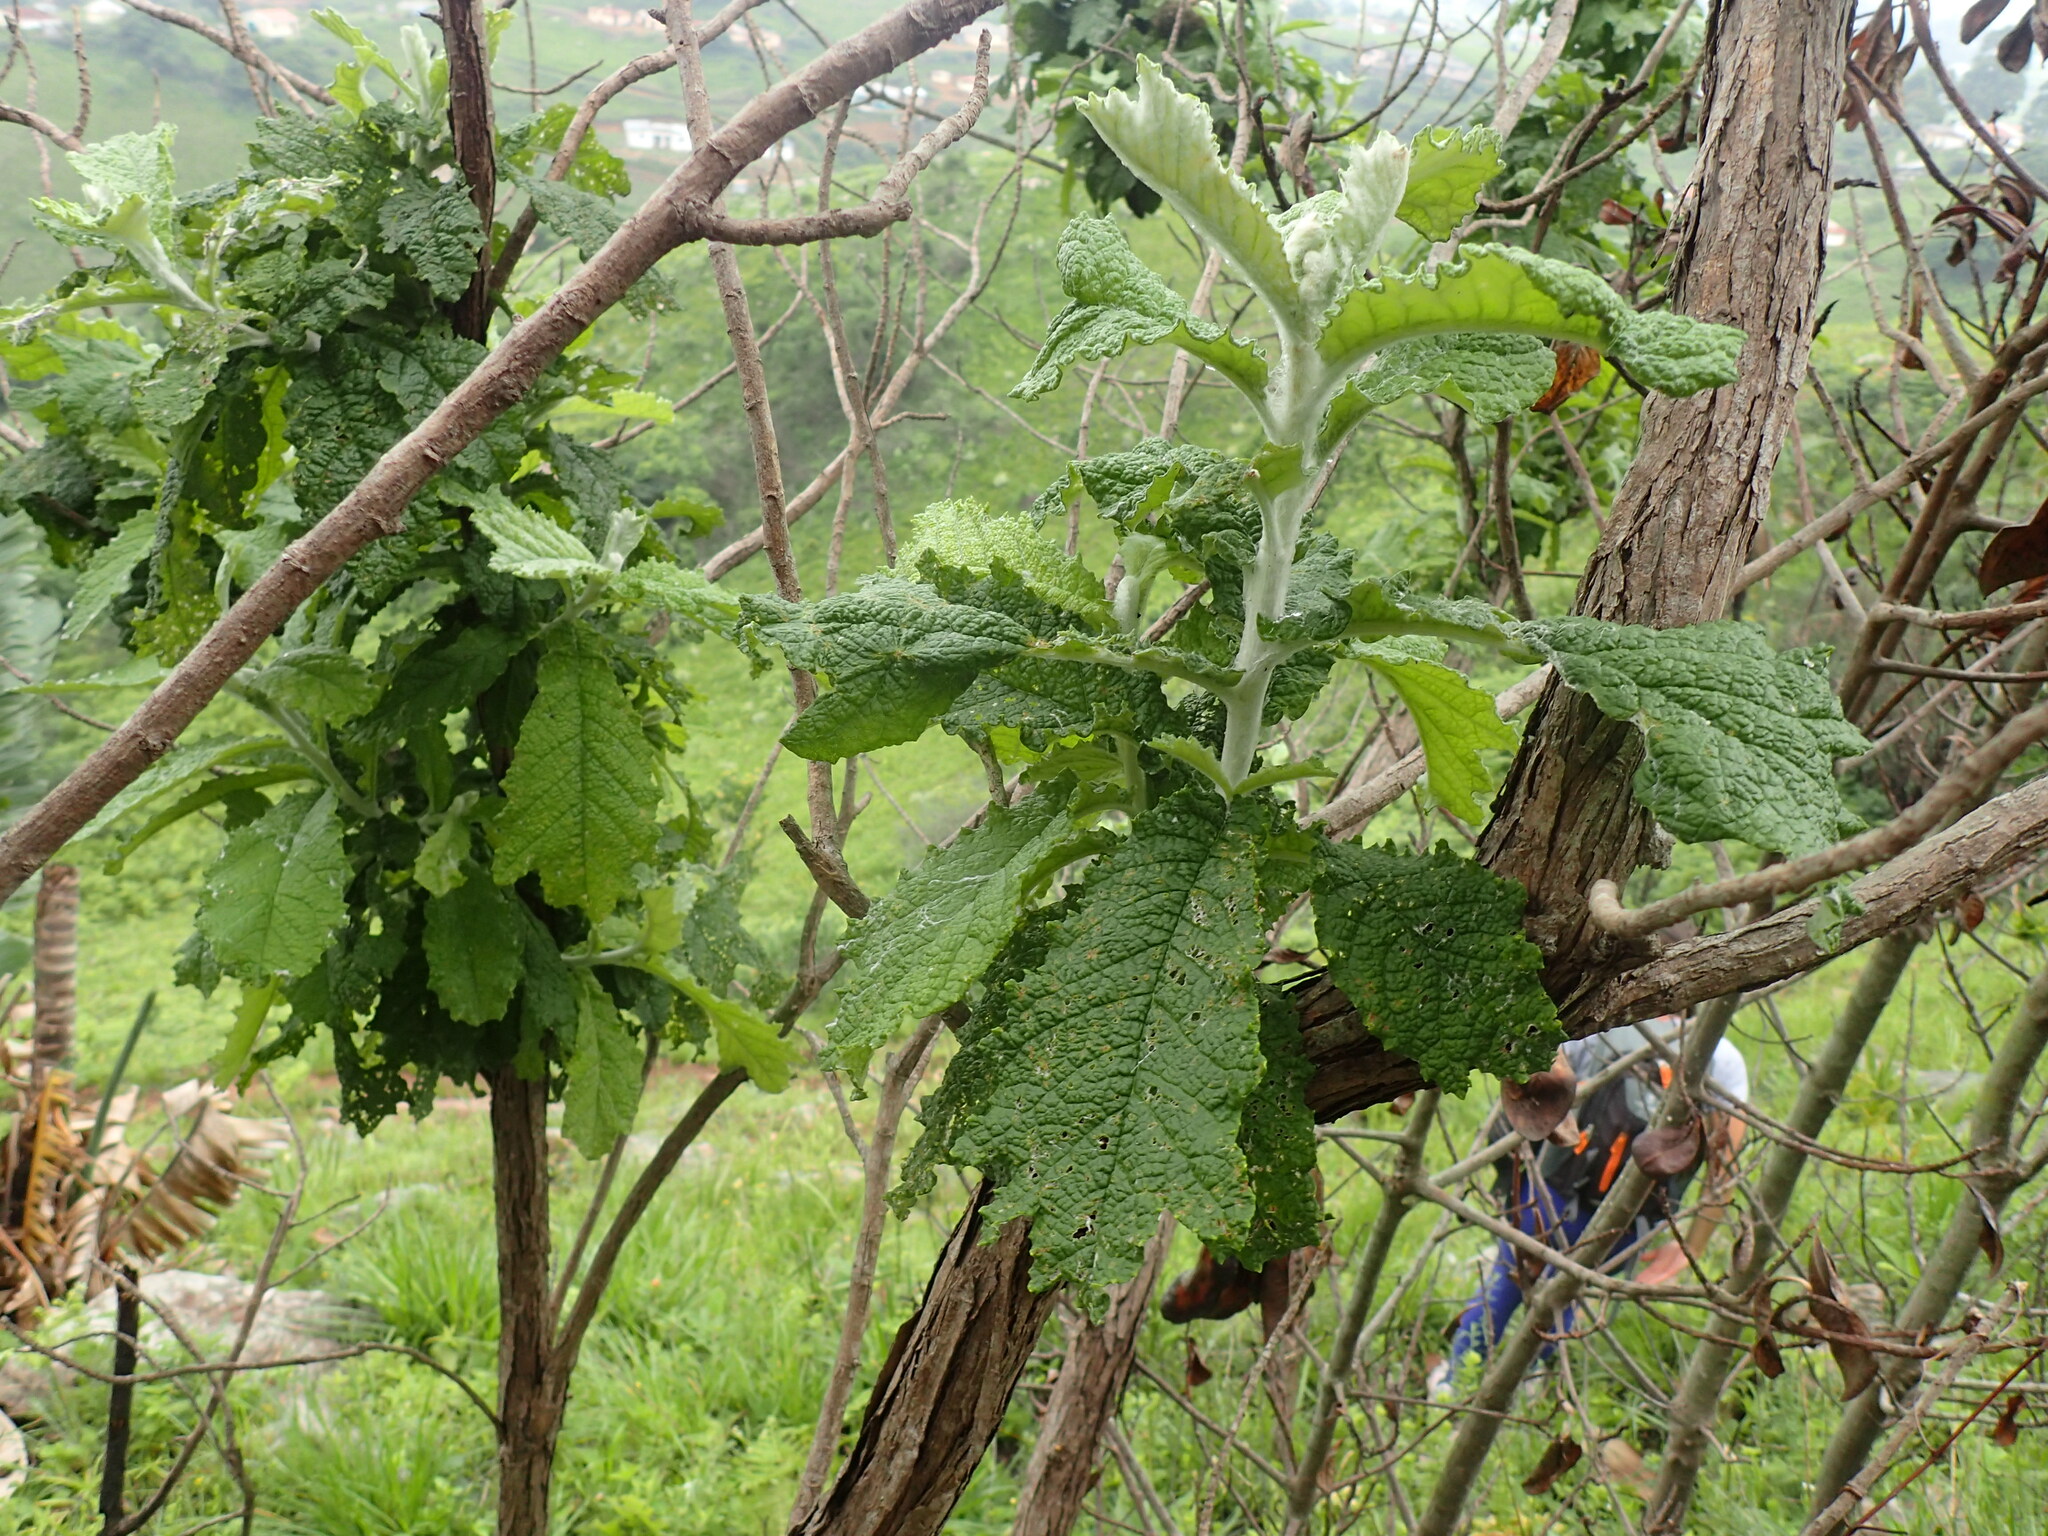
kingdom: Plantae
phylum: Tracheophyta
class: Magnoliopsida
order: Asterales
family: Asteraceae
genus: Tarchonanthus
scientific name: Tarchonanthus trilobus
